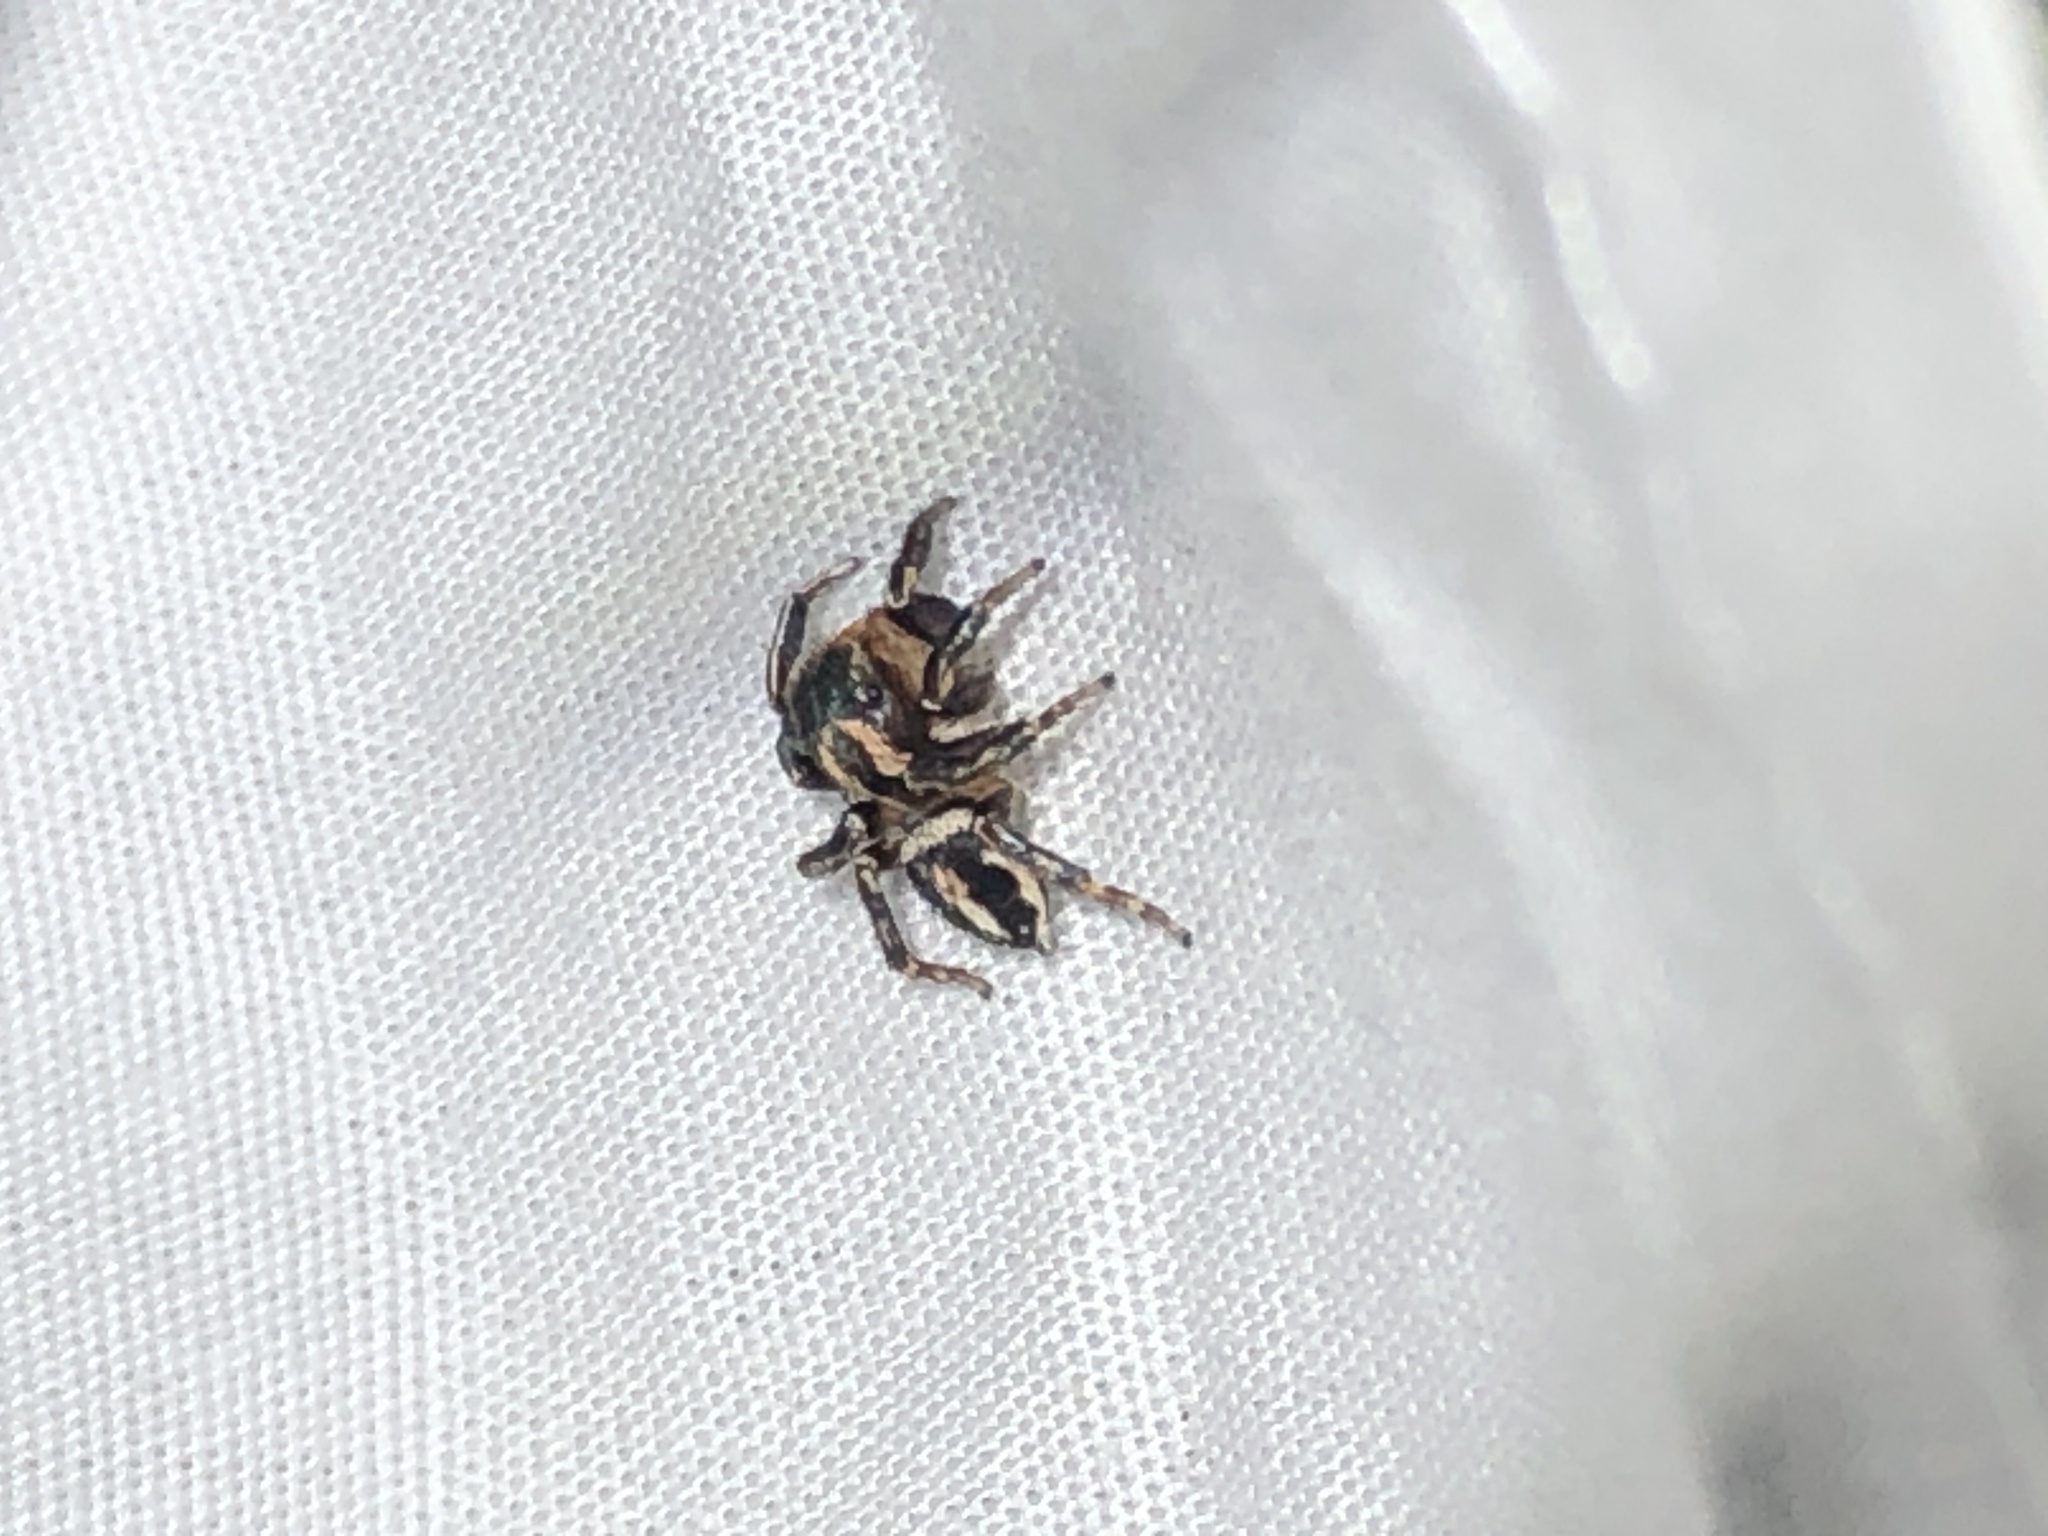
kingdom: Animalia
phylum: Arthropoda
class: Arachnida
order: Araneae
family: Salticidae
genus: Habronattus
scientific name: Habronattus hallani
